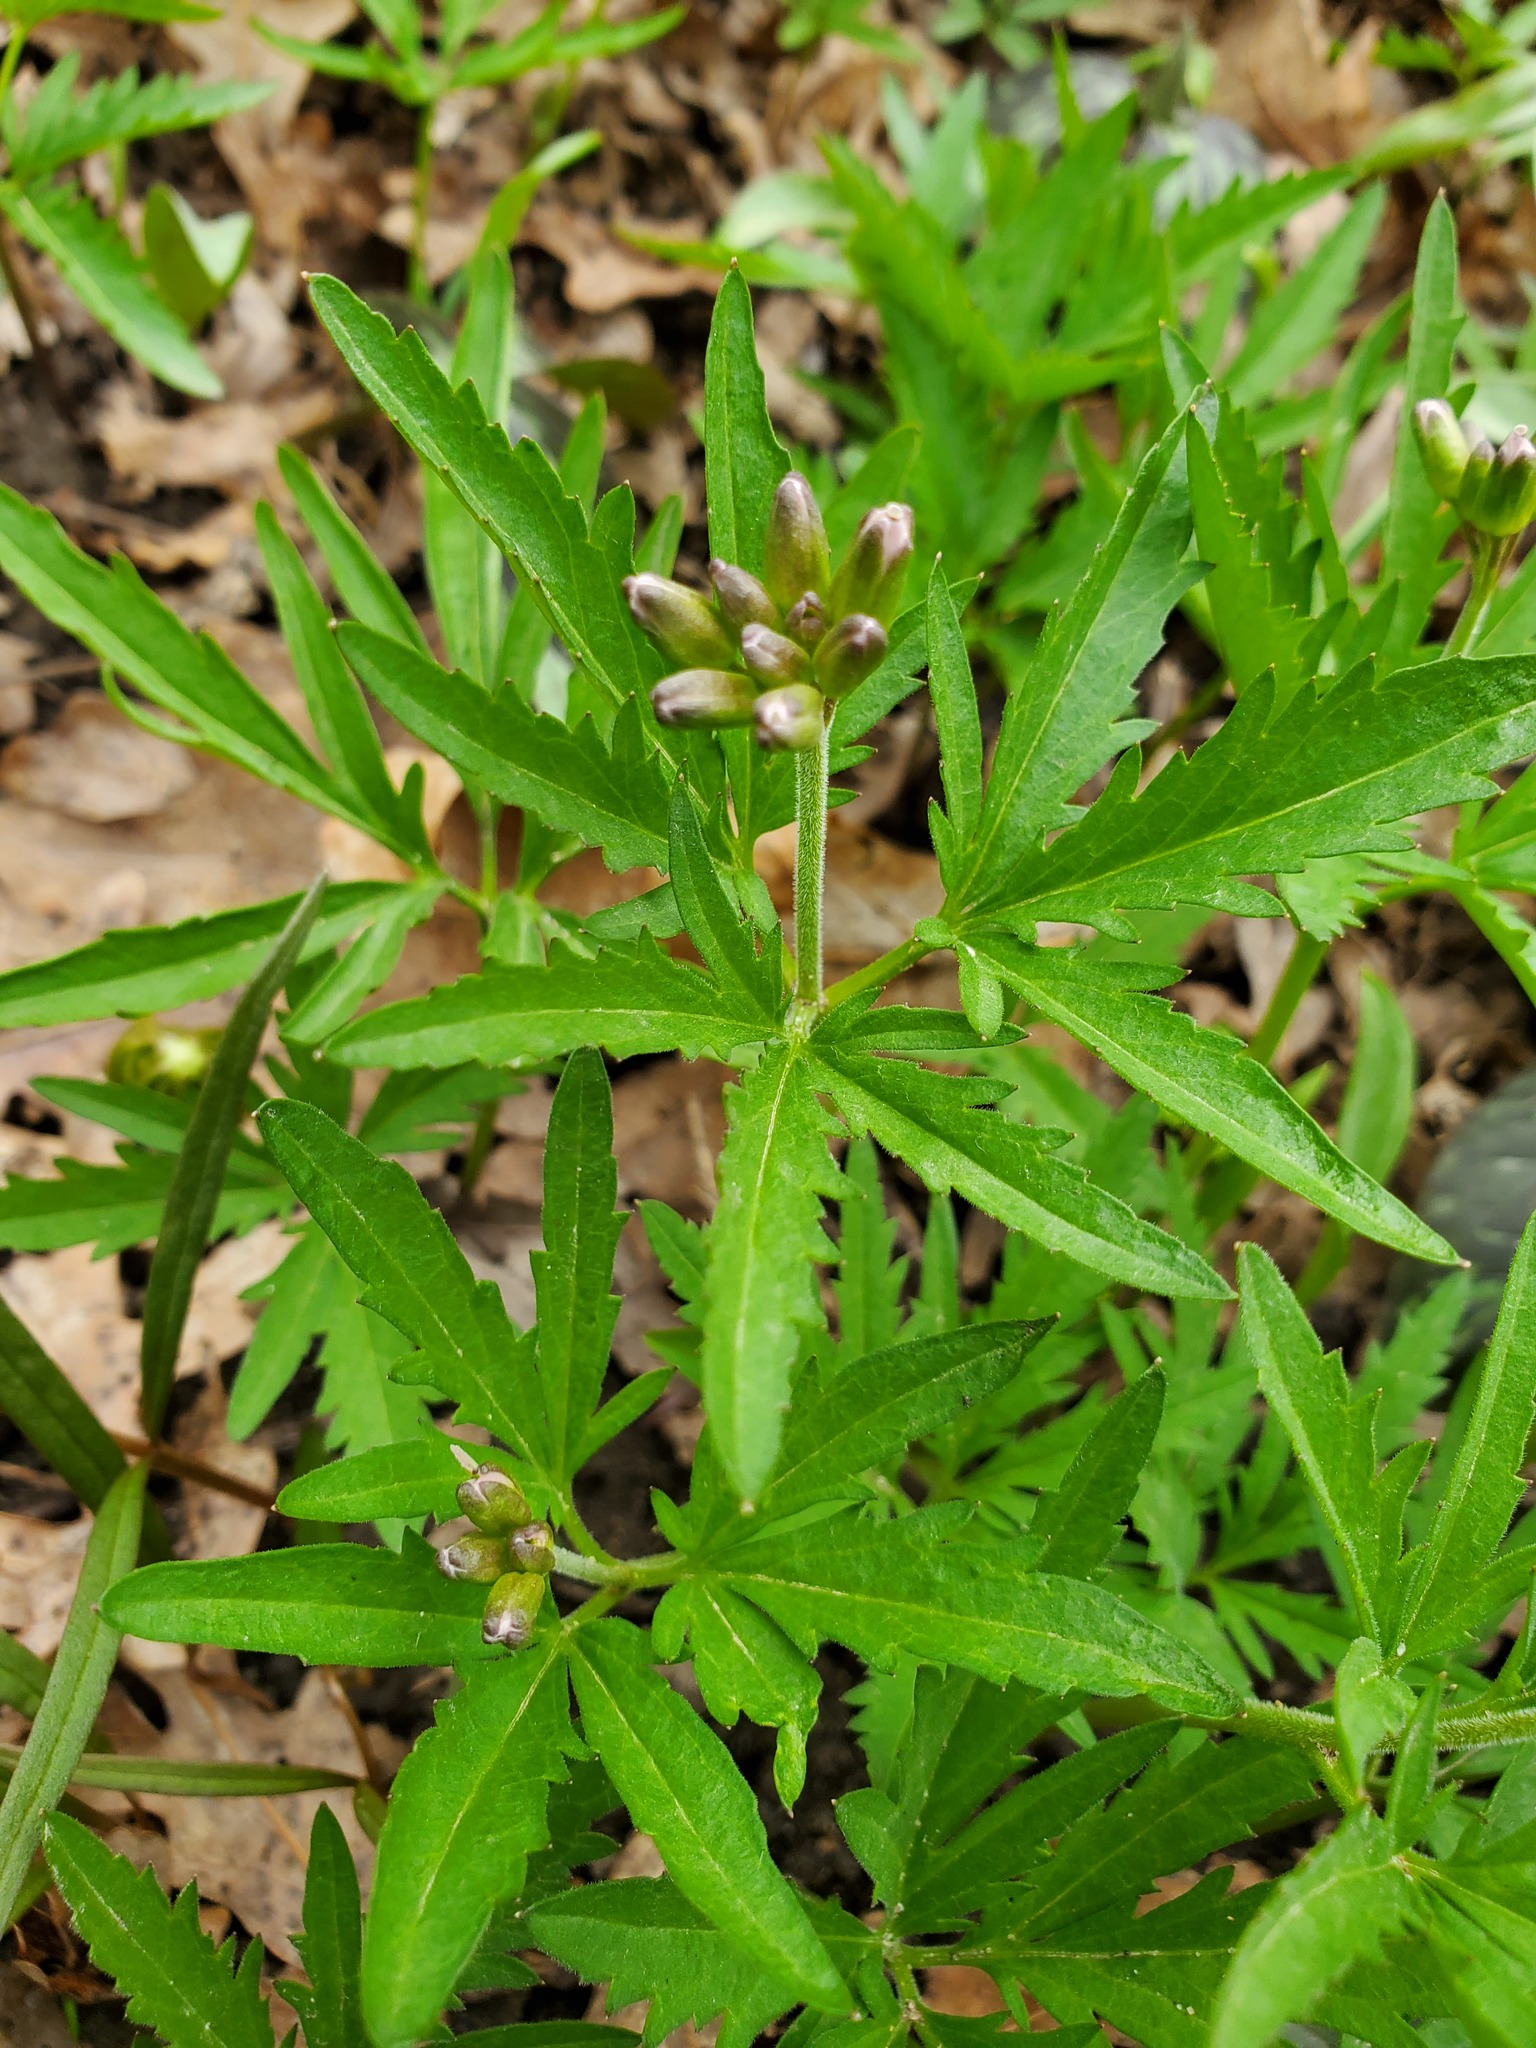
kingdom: Plantae
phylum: Tracheophyta
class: Magnoliopsida
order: Brassicales
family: Brassicaceae
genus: Cardamine
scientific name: Cardamine concatenata
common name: Cut-leaf toothcup
